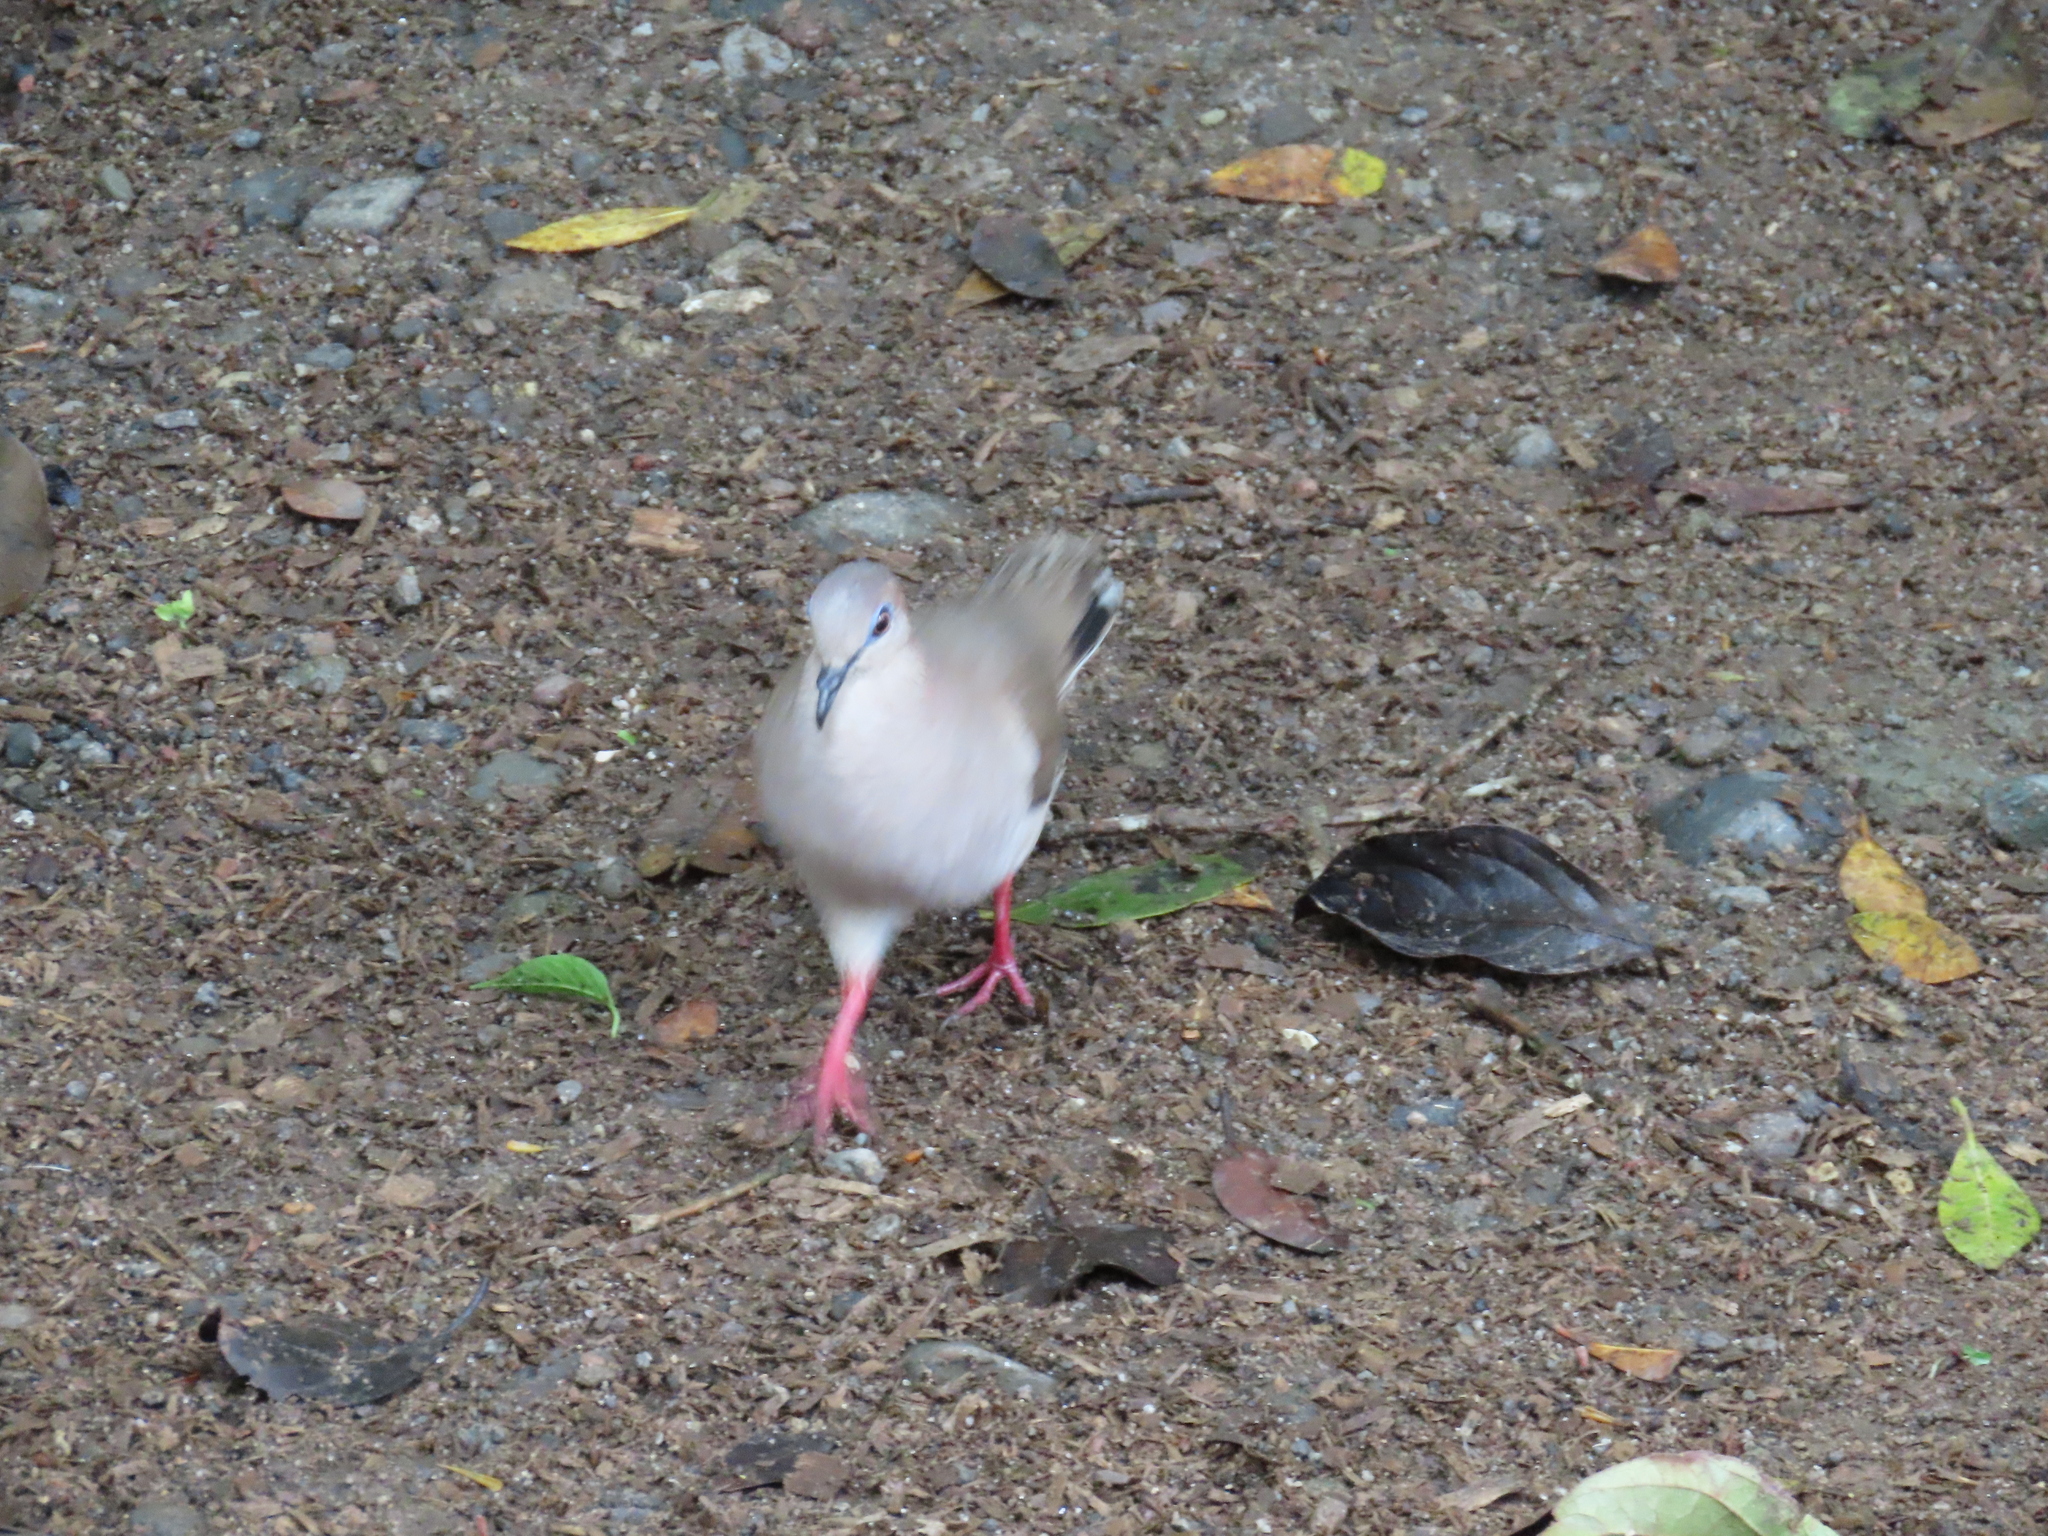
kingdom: Animalia
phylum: Chordata
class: Aves
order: Columbiformes
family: Columbidae
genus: Leptotila
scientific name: Leptotila verreauxi
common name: White-tipped dove
